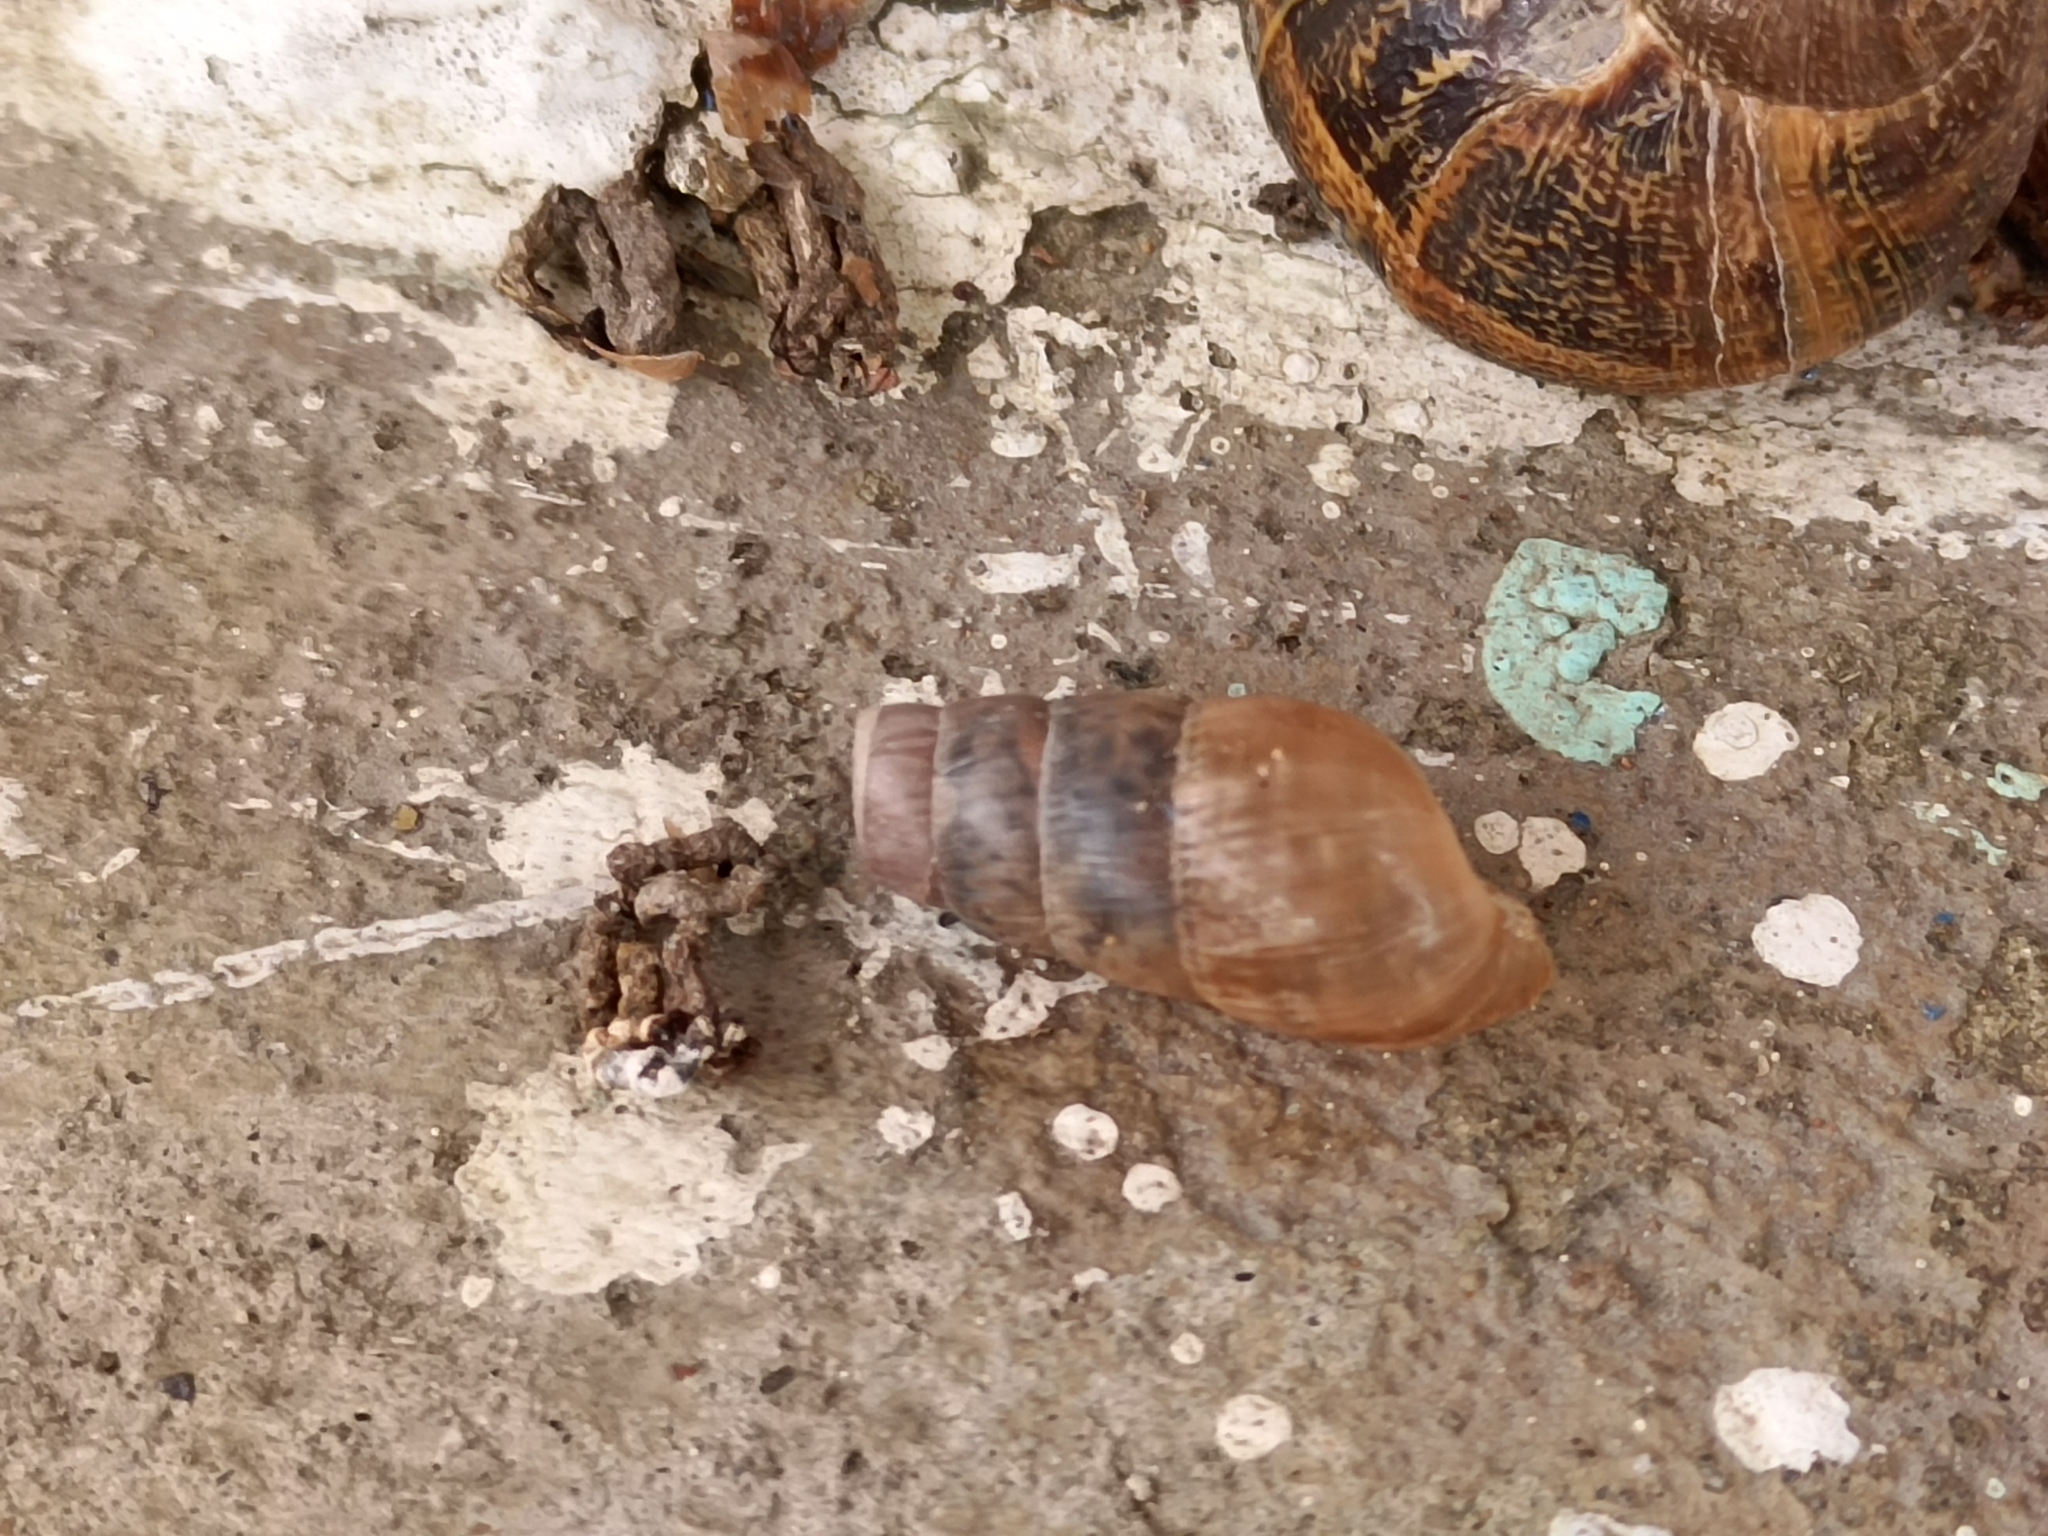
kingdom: Animalia
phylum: Mollusca
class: Gastropoda
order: Stylommatophora
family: Achatinidae
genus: Rumina
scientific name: Rumina decollata
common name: Decollate snail
